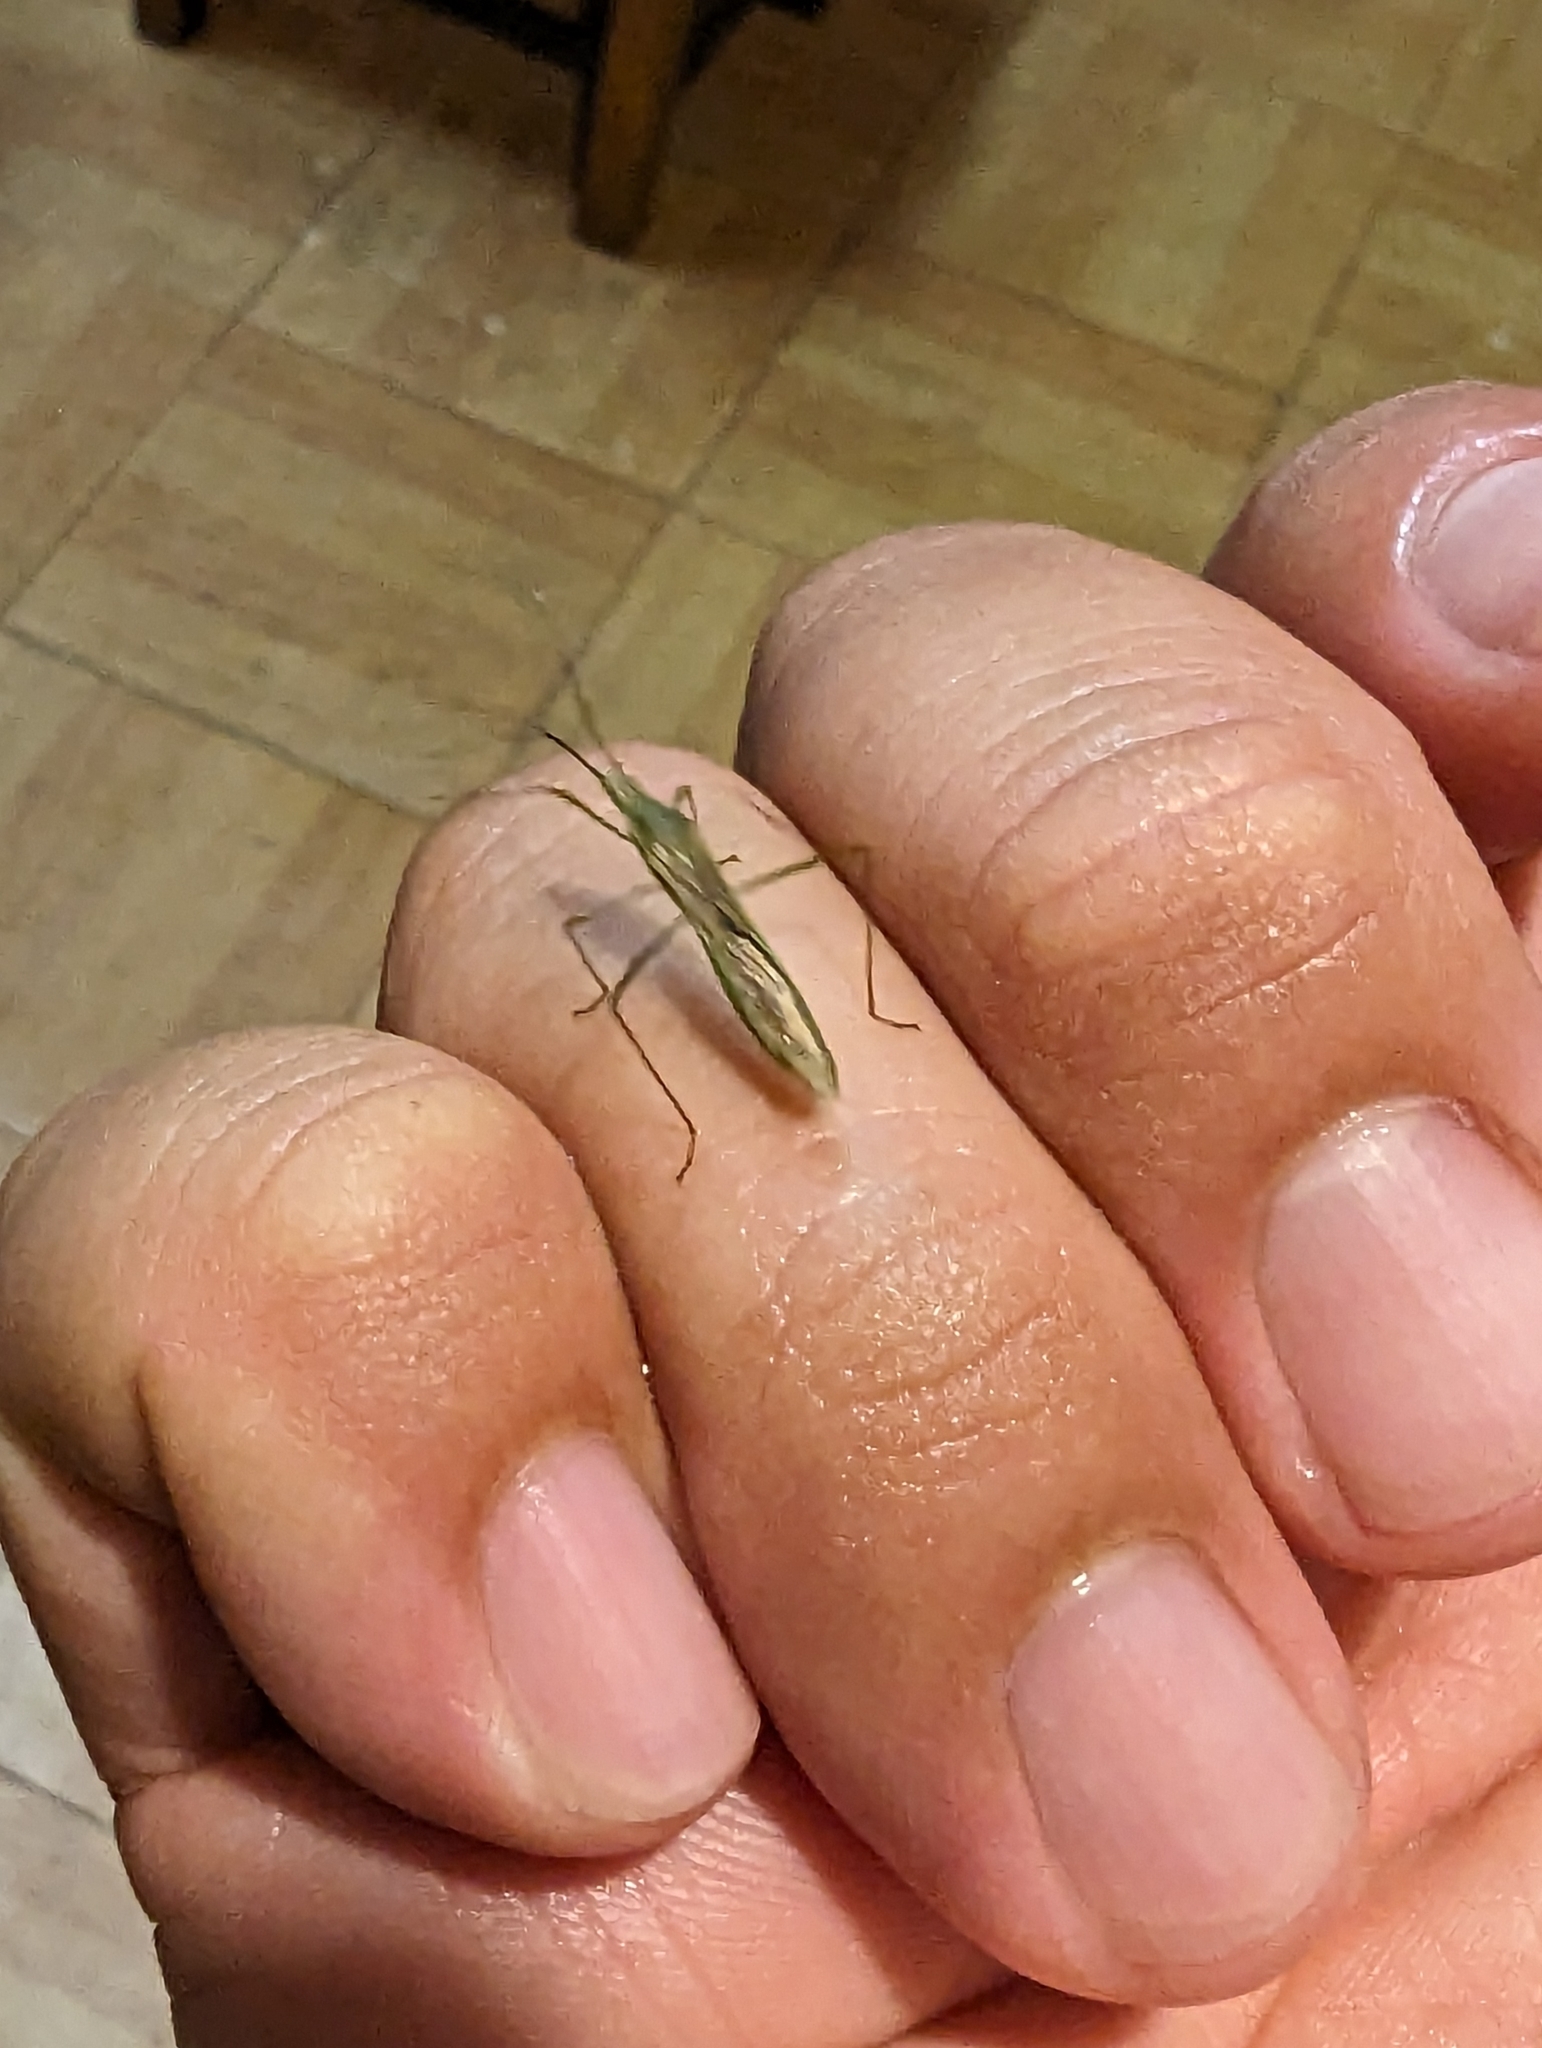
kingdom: Animalia
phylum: Arthropoda
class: Insecta
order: Hemiptera
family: Alydidae
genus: Leptocorisa
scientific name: Leptocorisa acuta
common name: Gandhi bug
